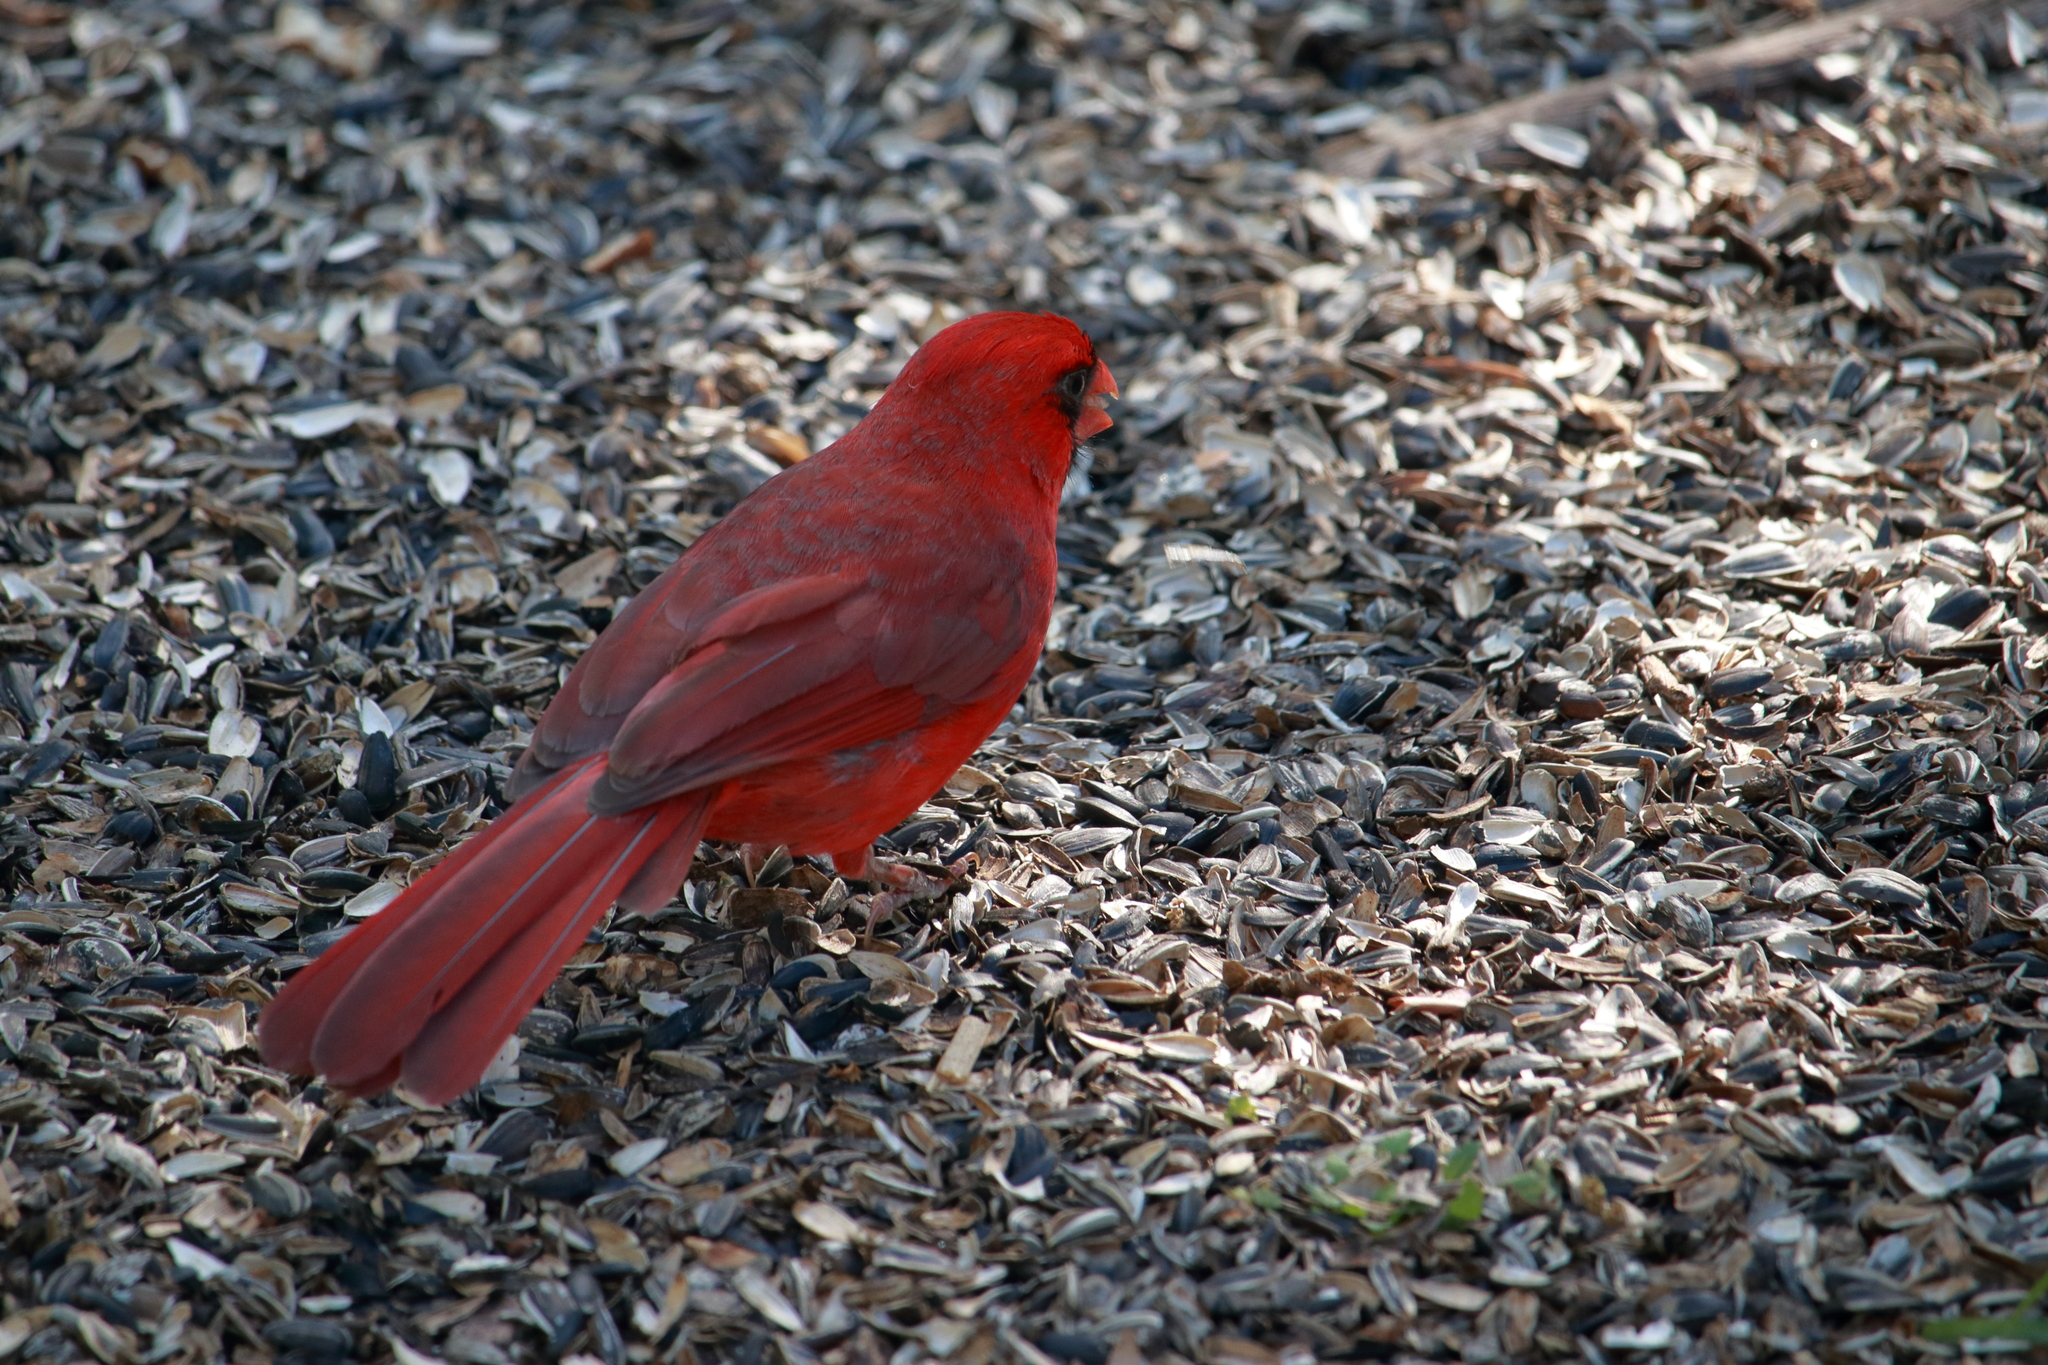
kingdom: Animalia
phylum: Chordata
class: Aves
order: Passeriformes
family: Cardinalidae
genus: Cardinalis
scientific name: Cardinalis cardinalis
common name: Northern cardinal
